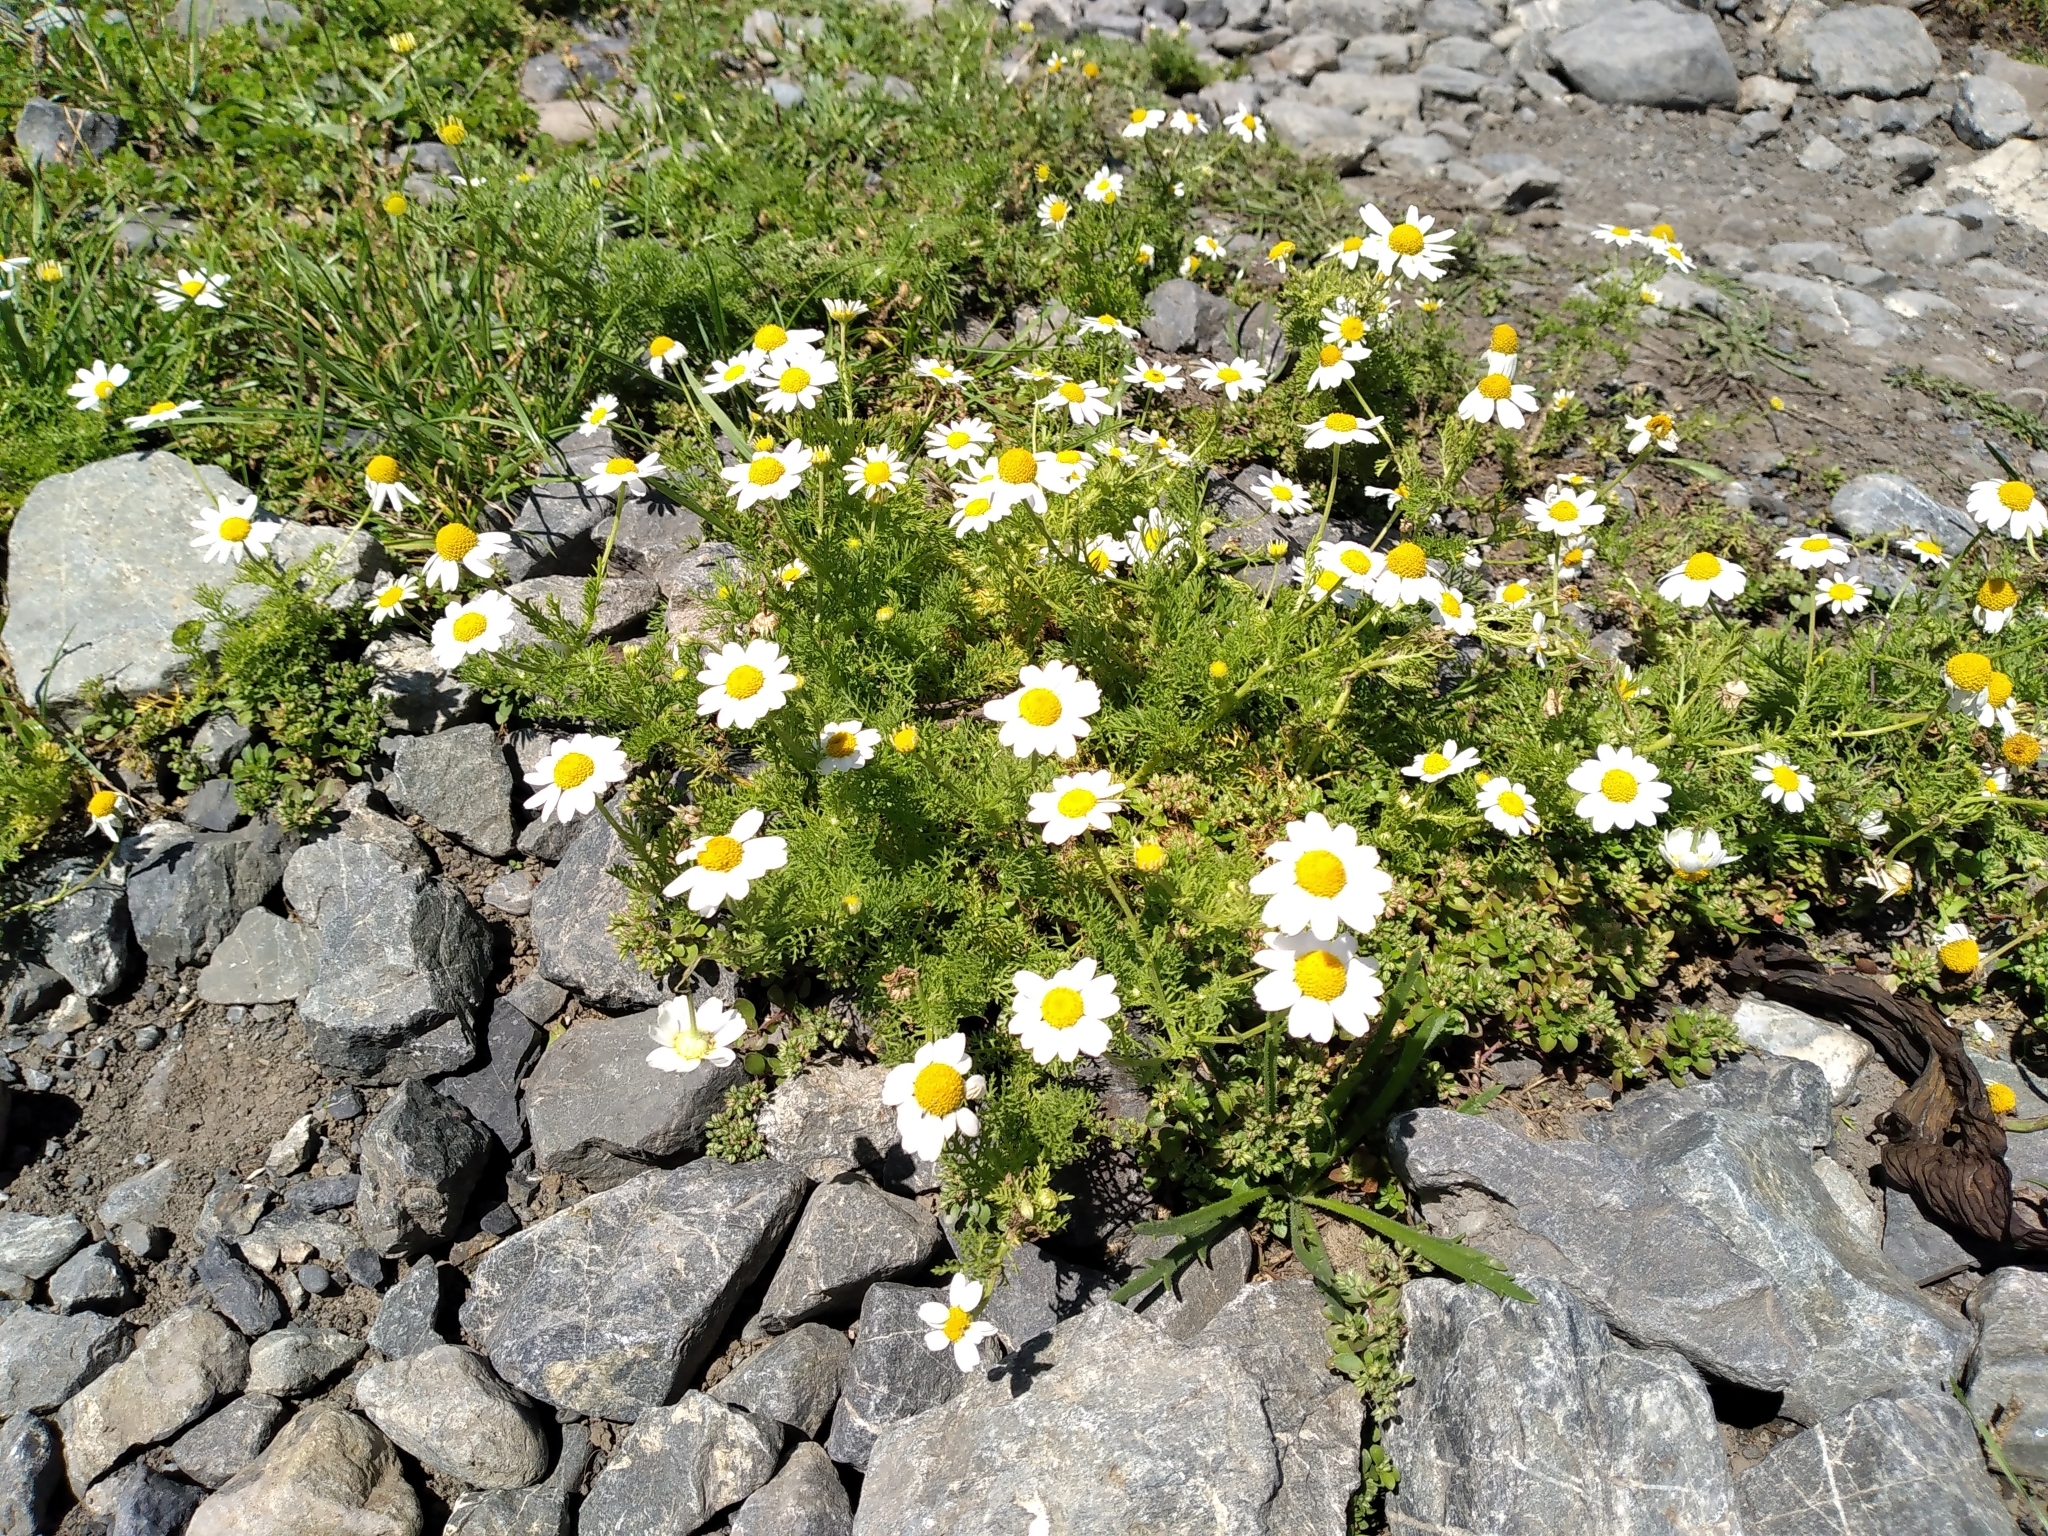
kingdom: Plantae
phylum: Tracheophyta
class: Magnoliopsida
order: Asterales
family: Asteraceae
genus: Anthemis
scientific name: Anthemis cotula
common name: Stinking chamomile
